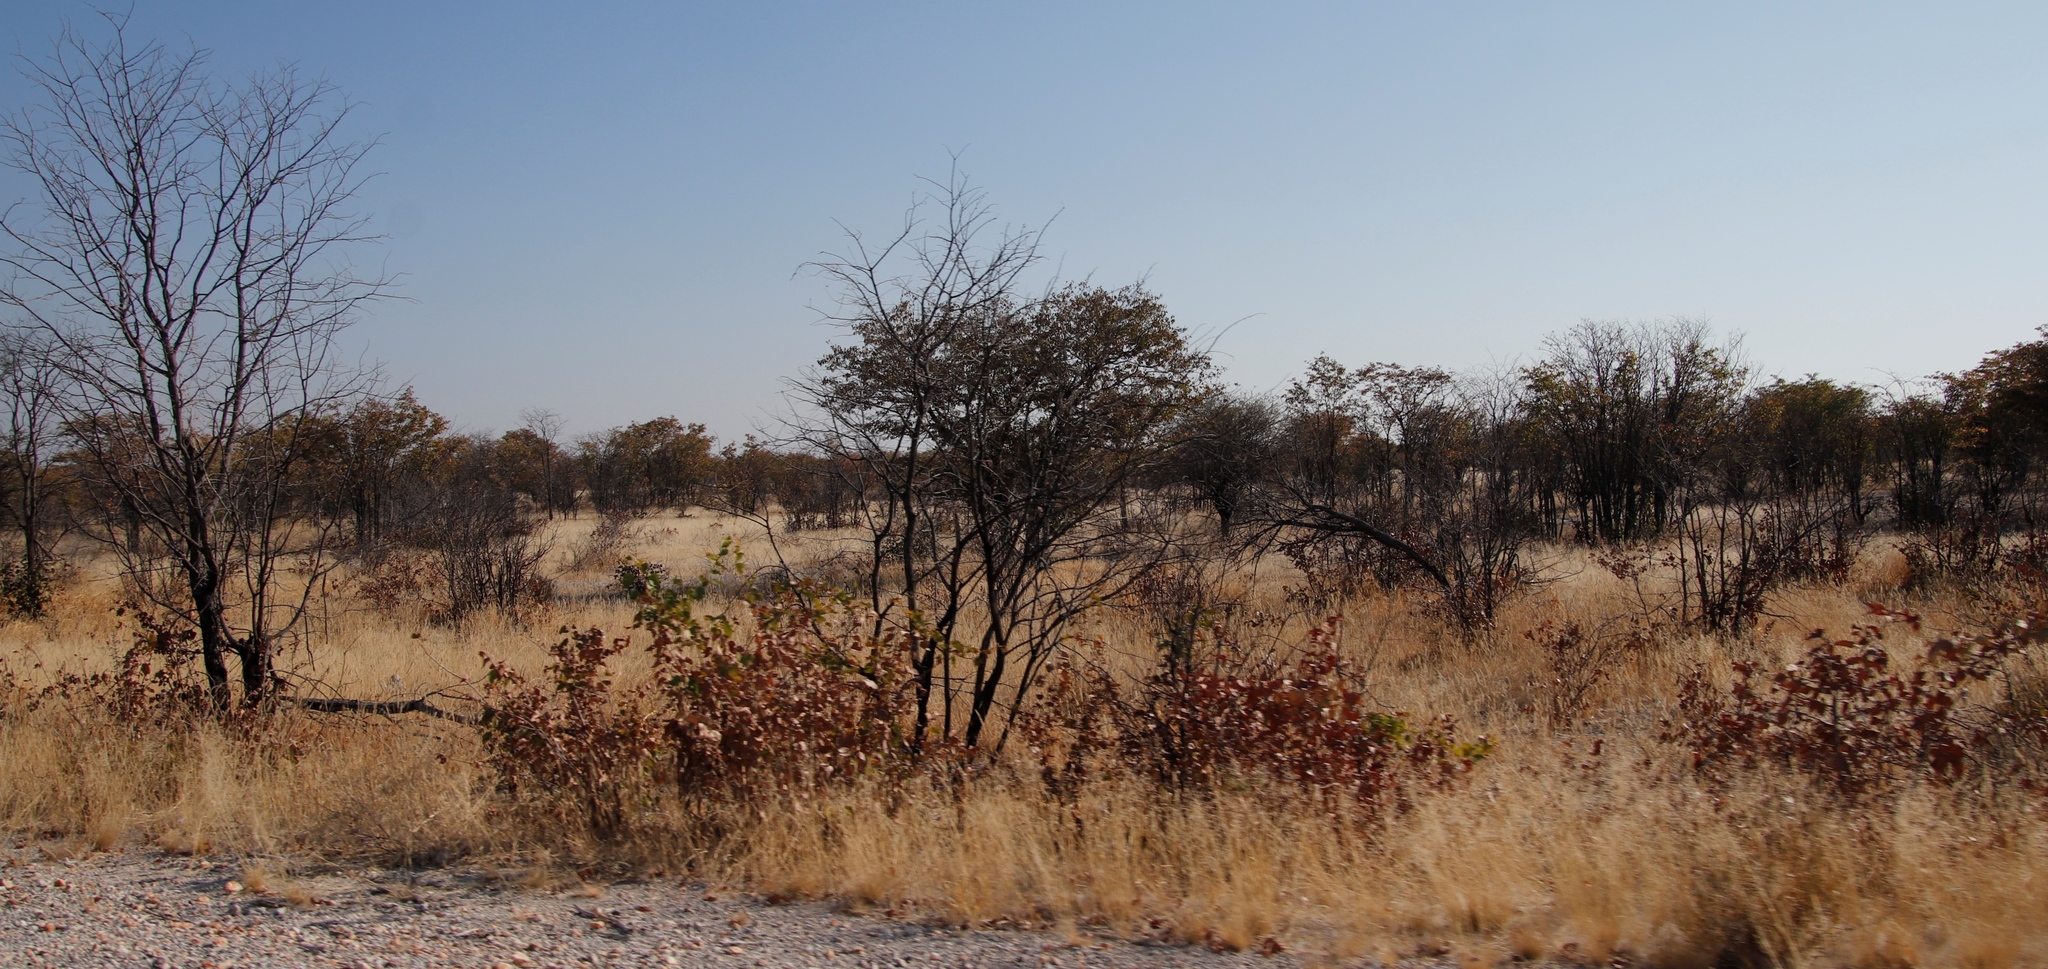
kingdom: Plantae
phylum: Tracheophyta
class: Magnoliopsida
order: Fabales
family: Fabaceae
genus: Colophospermum
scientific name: Colophospermum mopane
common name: Mopane
